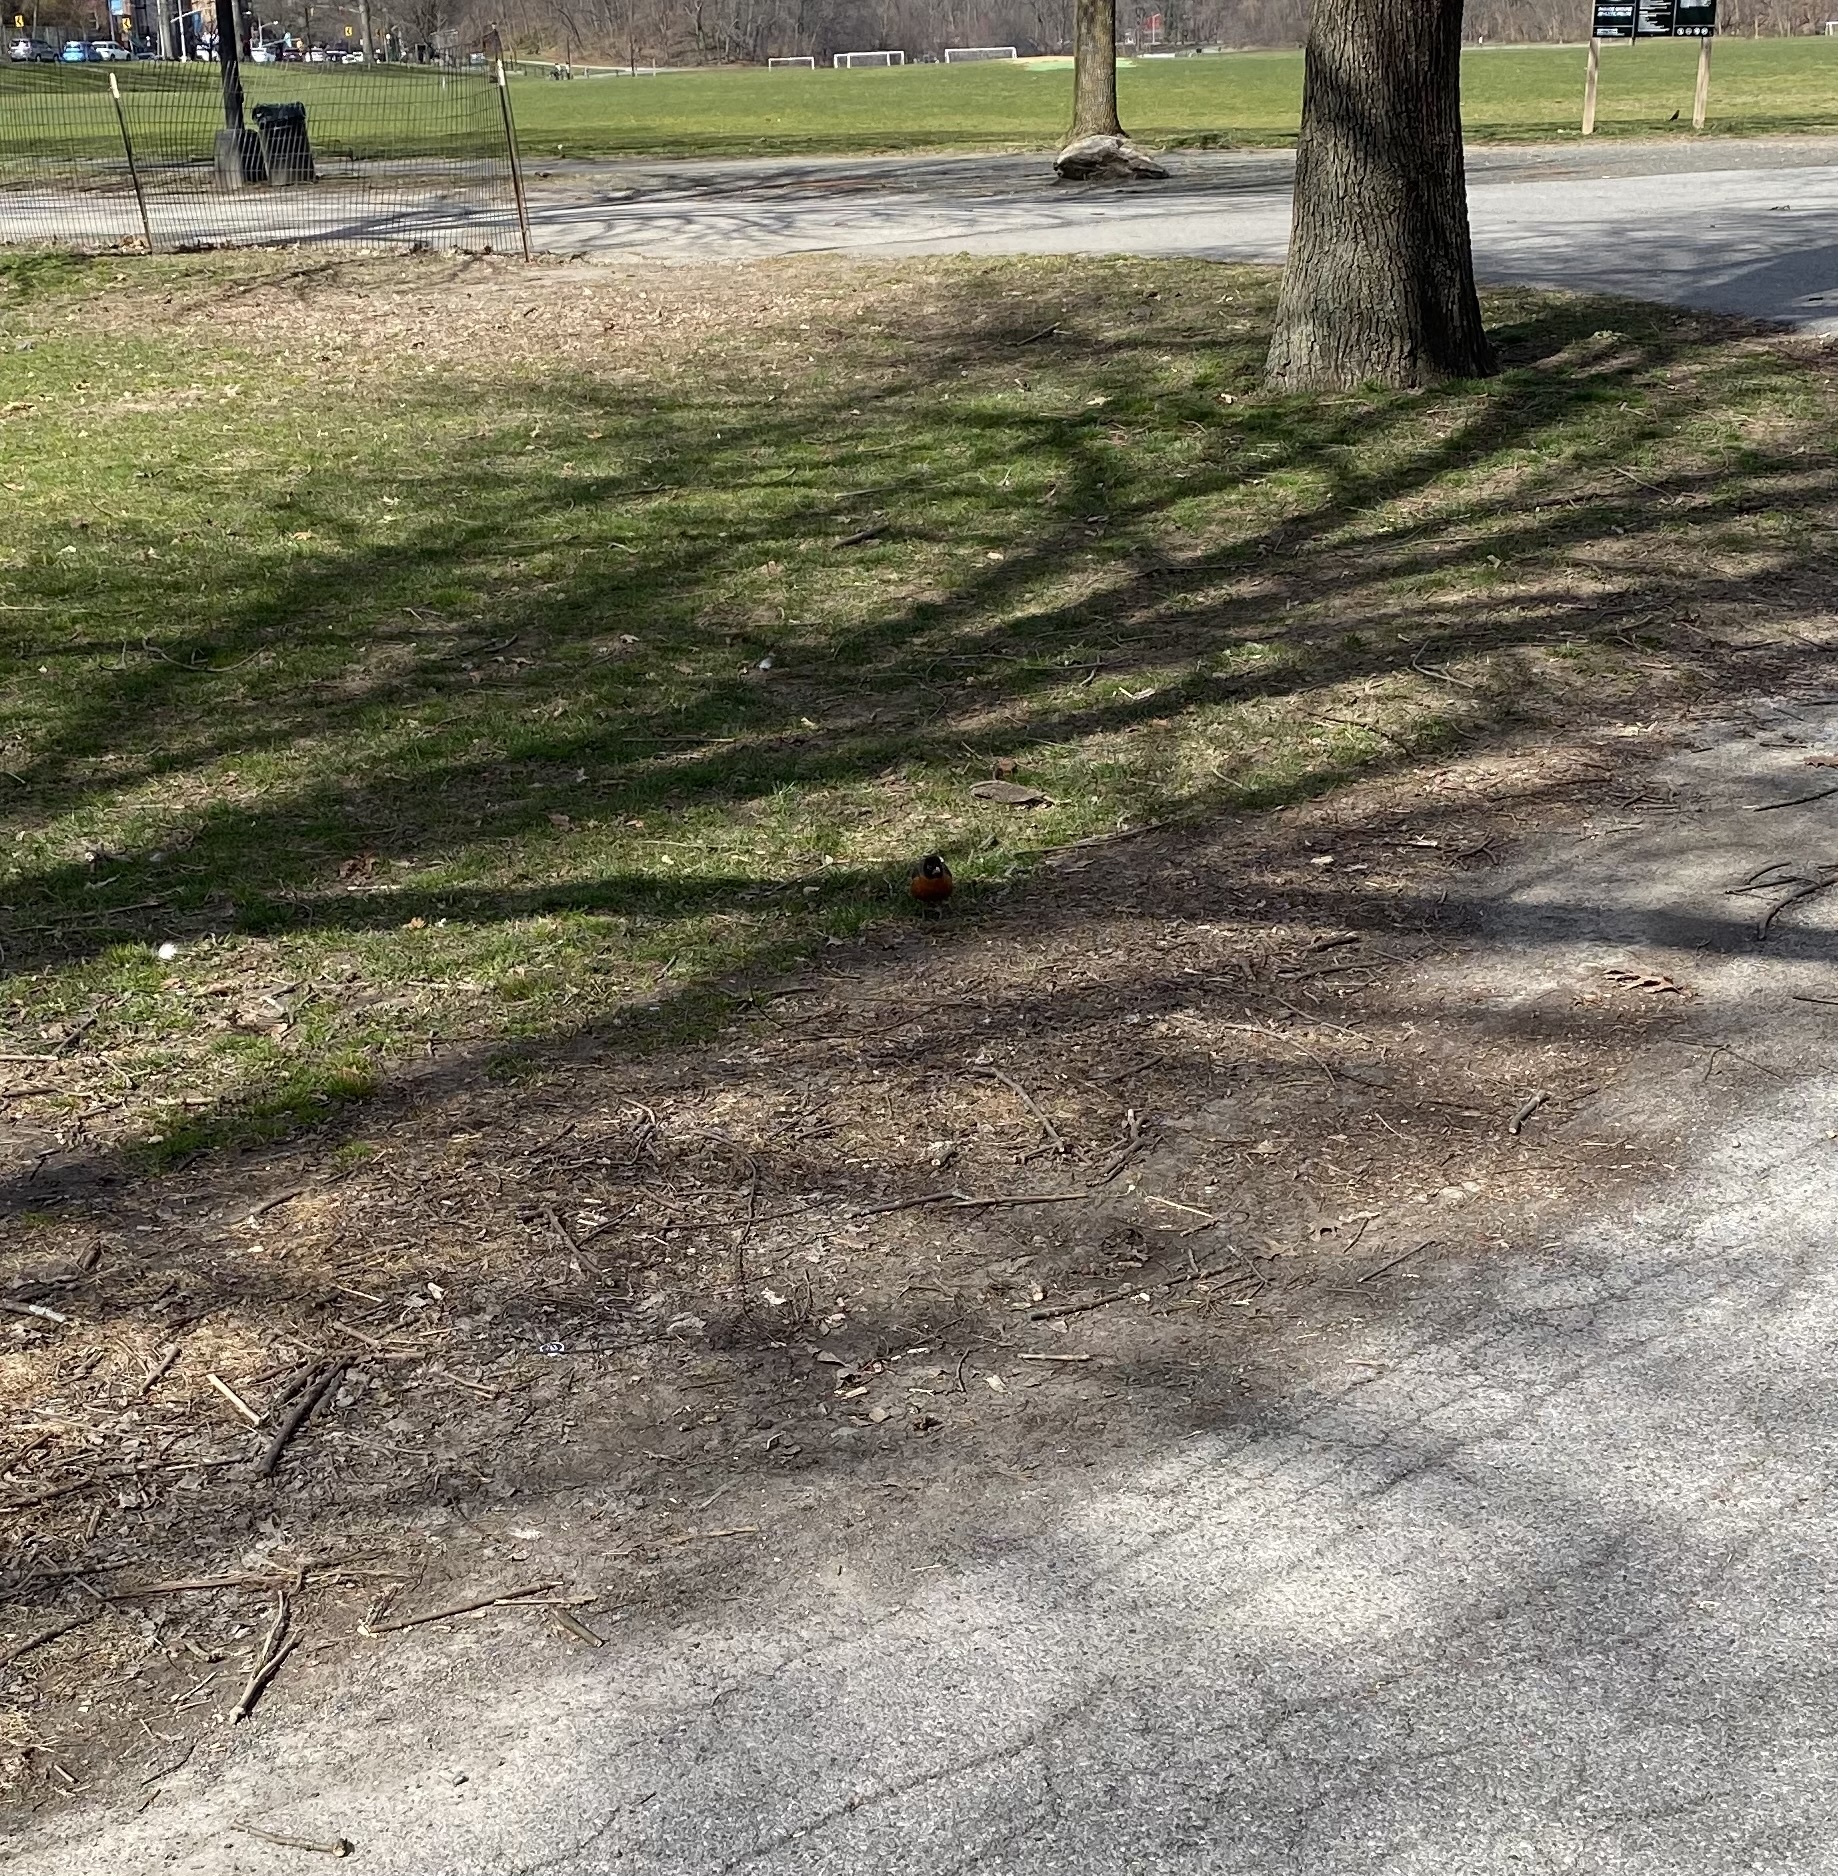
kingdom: Animalia
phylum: Chordata
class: Aves
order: Passeriformes
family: Turdidae
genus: Turdus
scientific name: Turdus migratorius
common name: American robin
